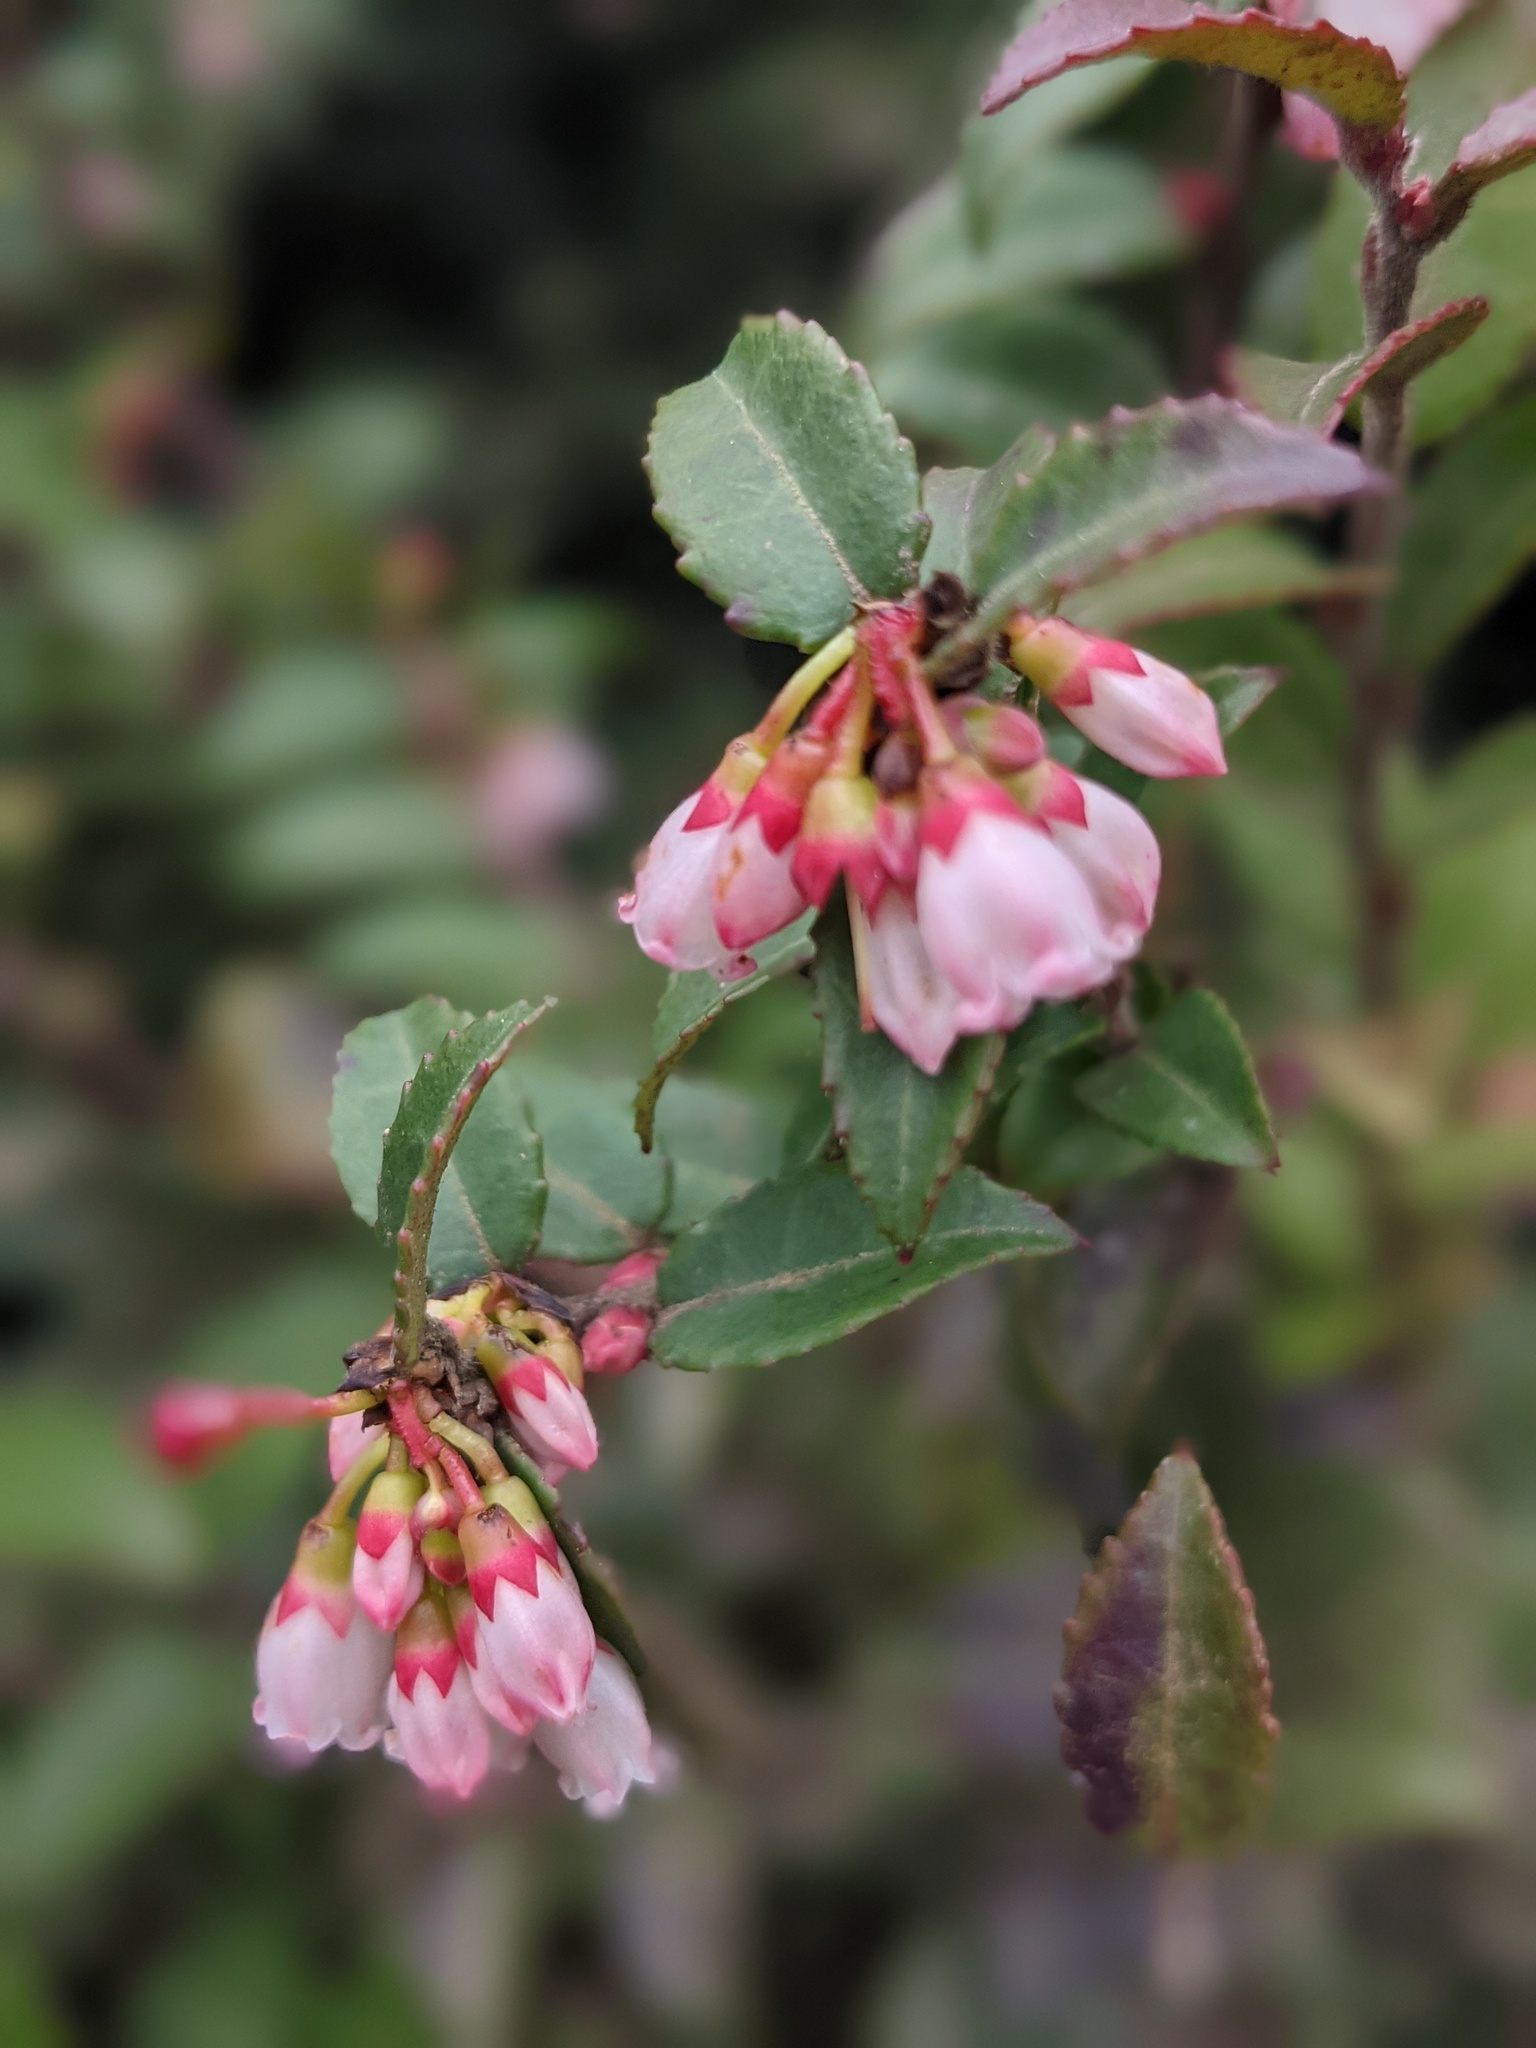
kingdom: Plantae
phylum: Tracheophyta
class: Magnoliopsida
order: Ericales
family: Ericaceae
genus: Vaccinium
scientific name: Vaccinium ovatum
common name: California-huckleberry
